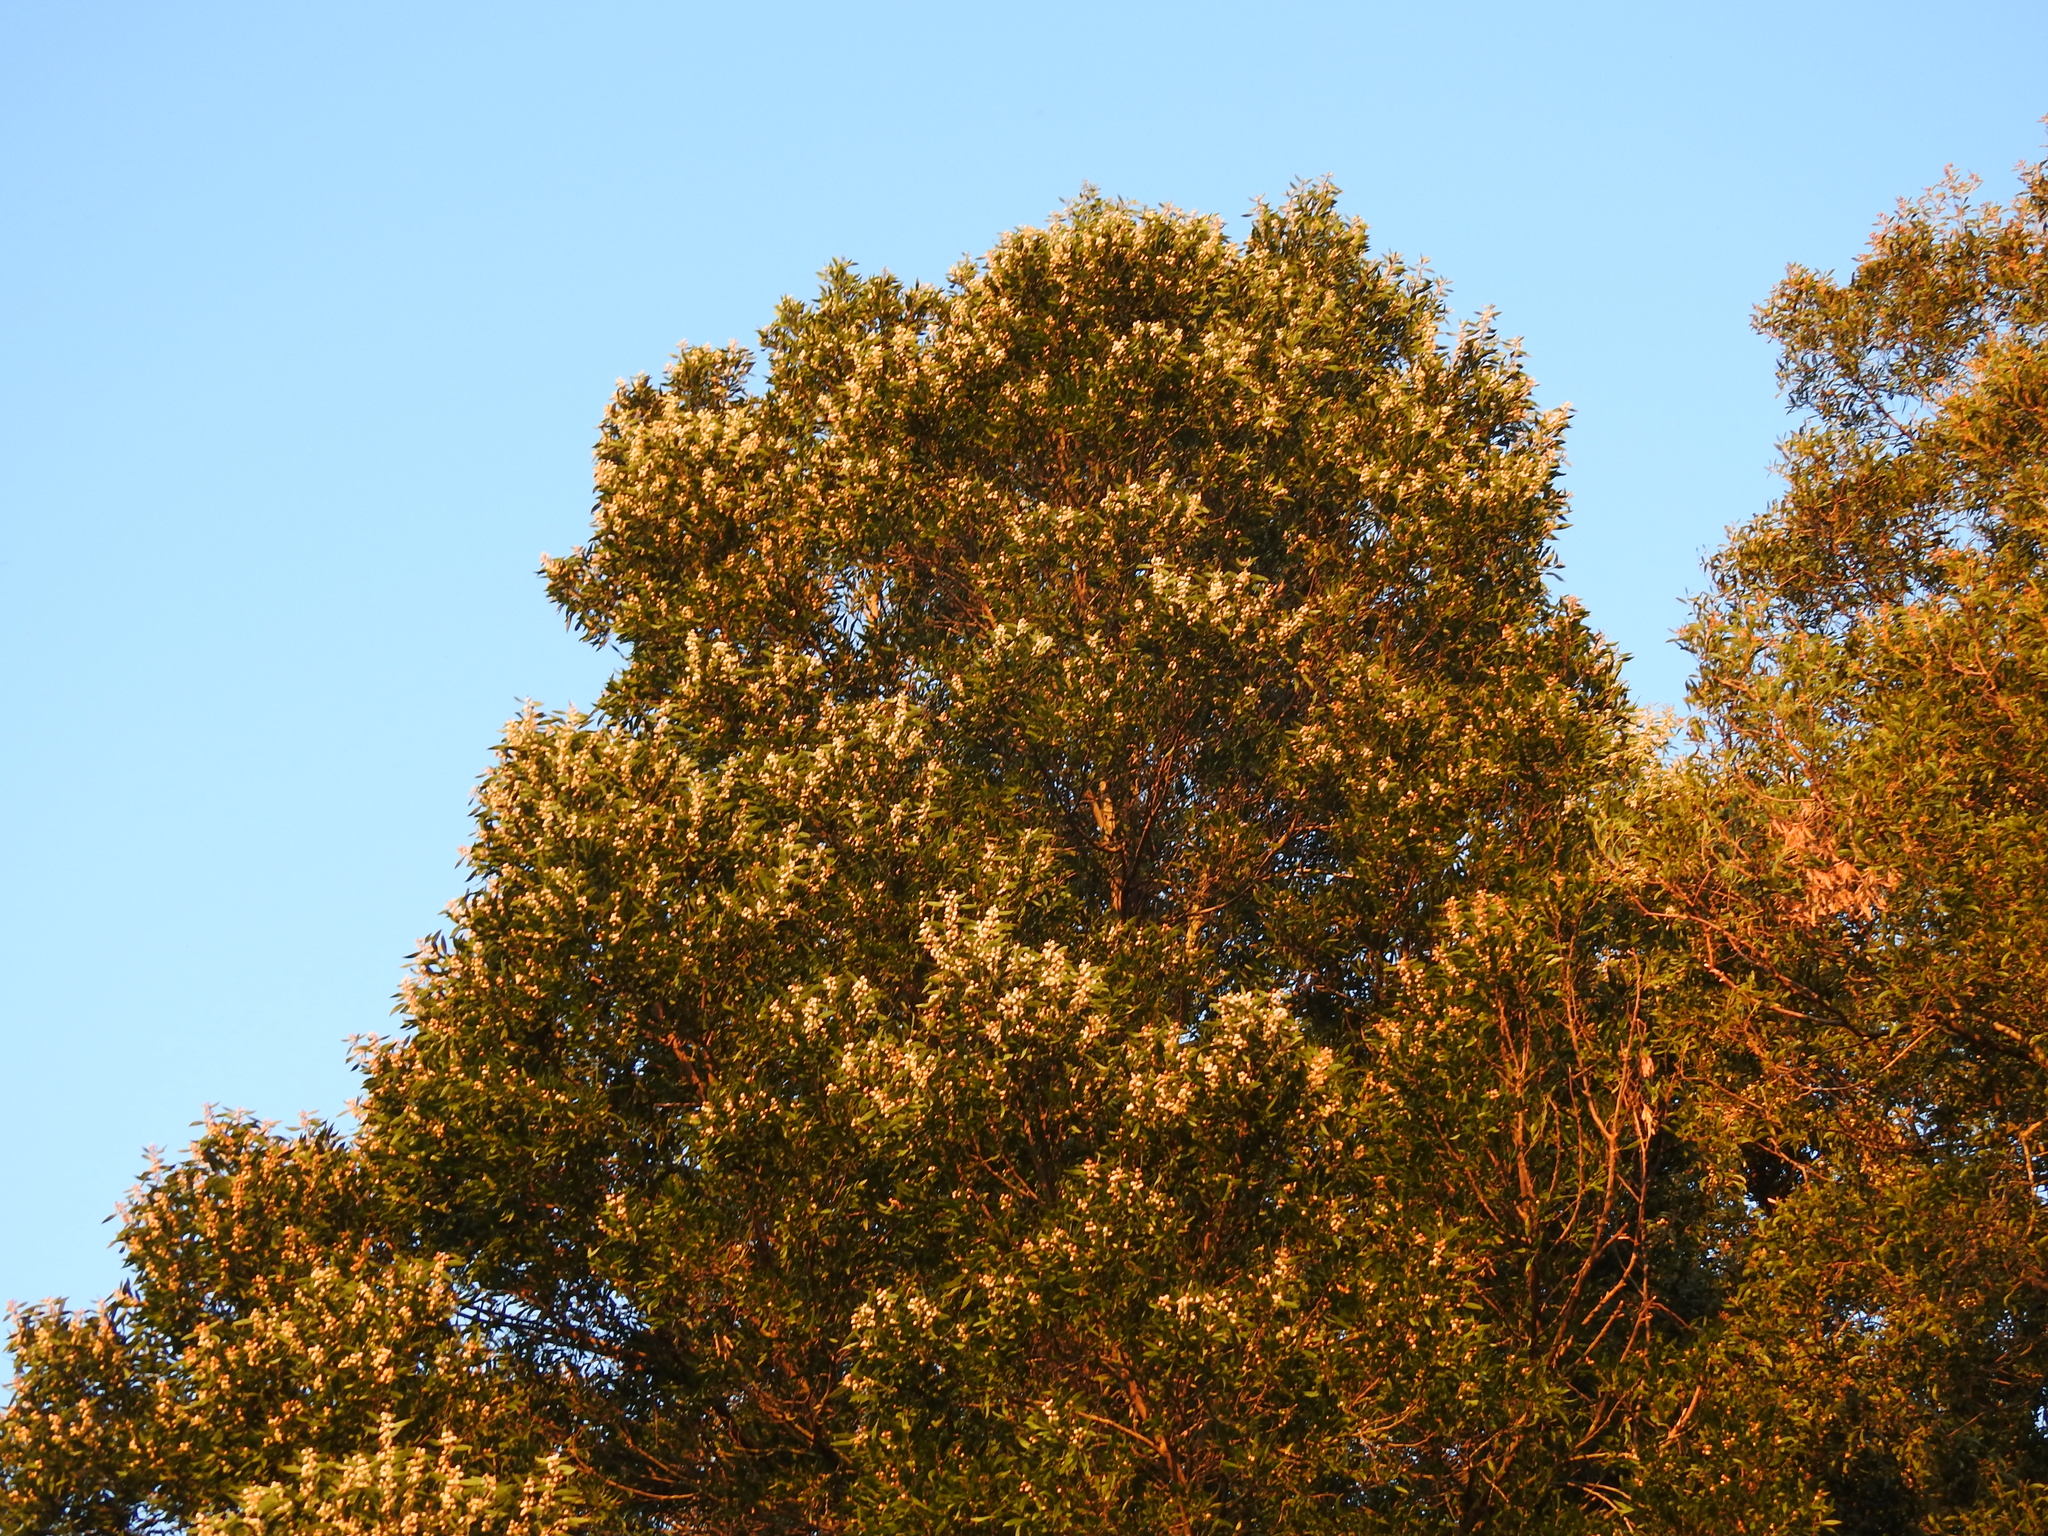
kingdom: Plantae
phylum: Tracheophyta
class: Magnoliopsida
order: Fabales
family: Fabaceae
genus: Acacia
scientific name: Acacia melanoxylon
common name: Blackwood
